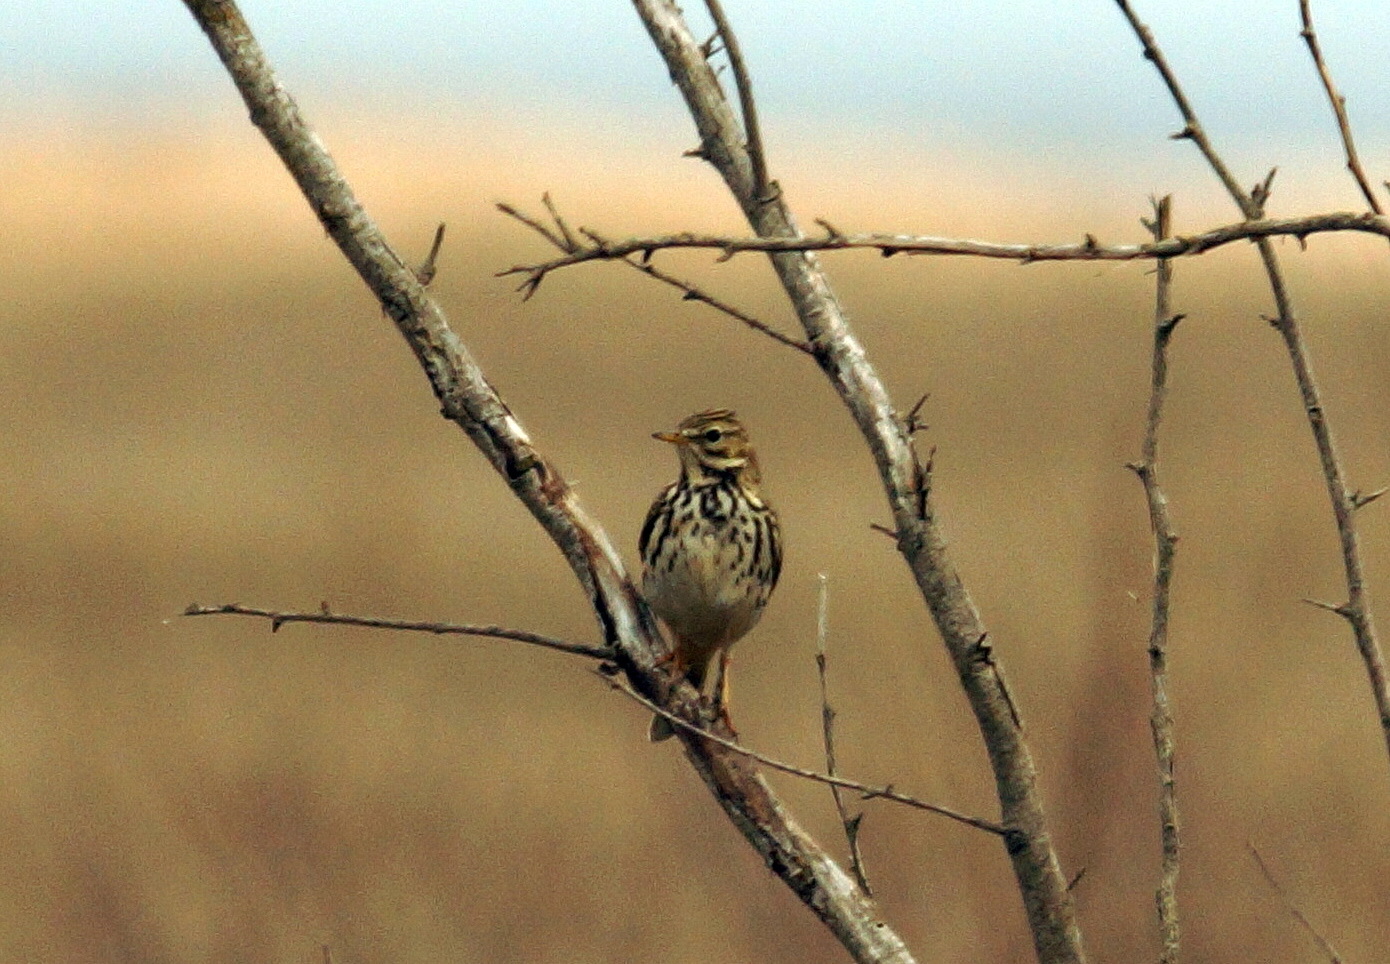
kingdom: Animalia
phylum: Chordata
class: Aves
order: Passeriformes
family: Motacillidae
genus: Anthus
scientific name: Anthus pratensis
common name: Meadow pipit
